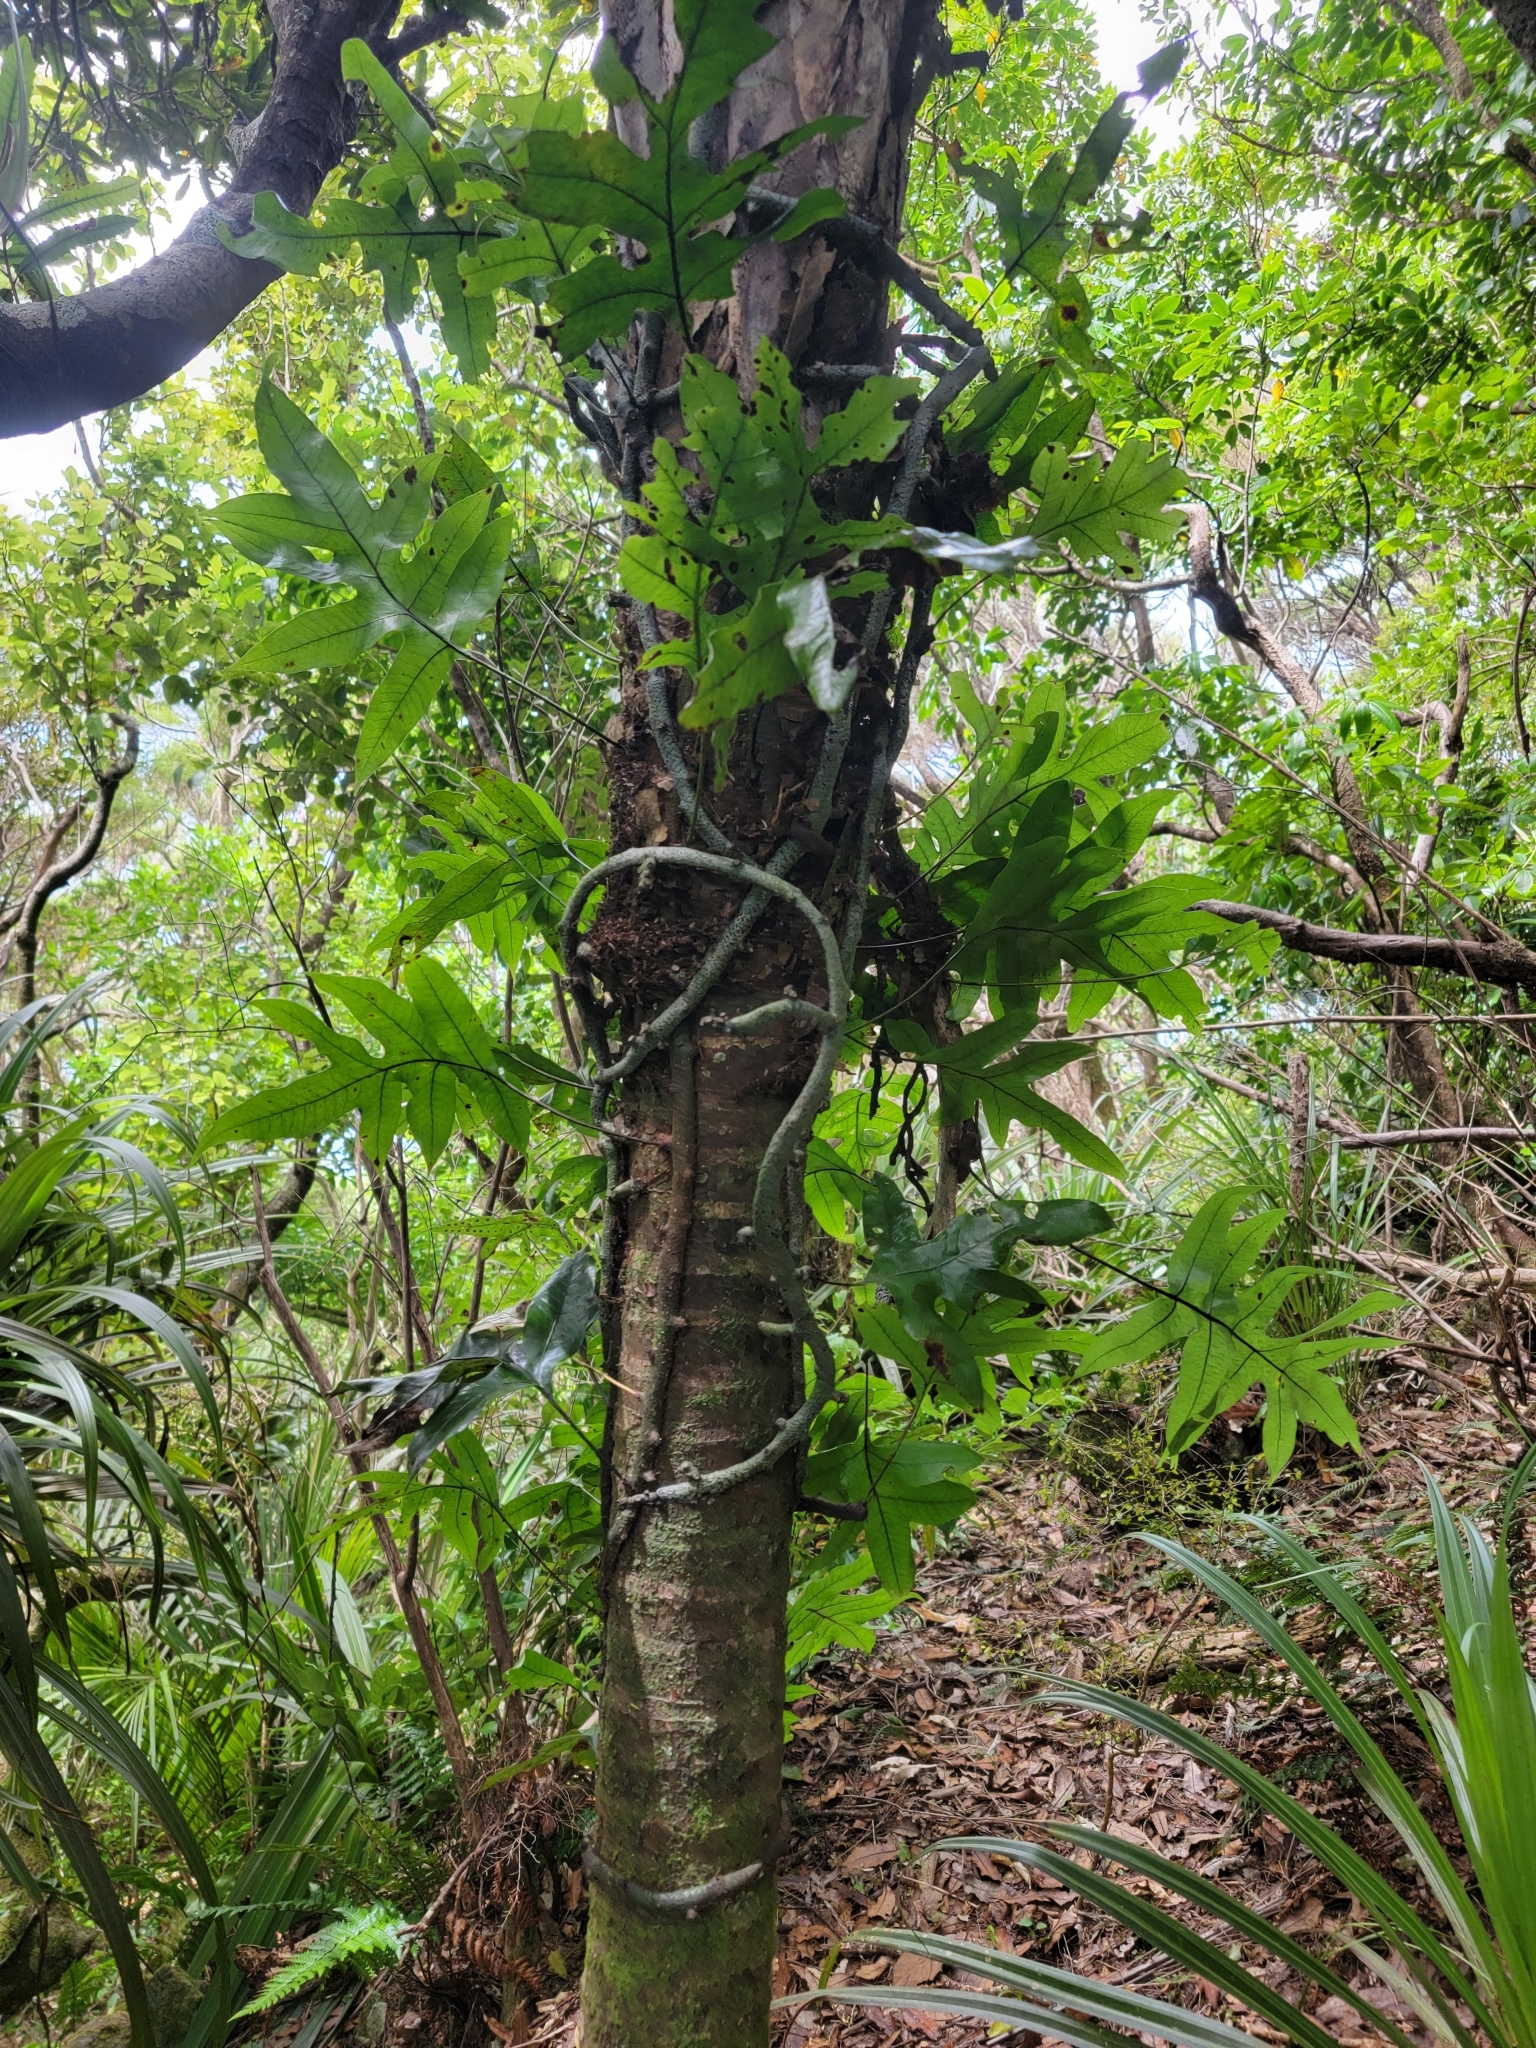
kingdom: Plantae
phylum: Tracheophyta
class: Polypodiopsida
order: Polypodiales
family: Polypodiaceae
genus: Lecanopteris
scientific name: Lecanopteris pustulata
